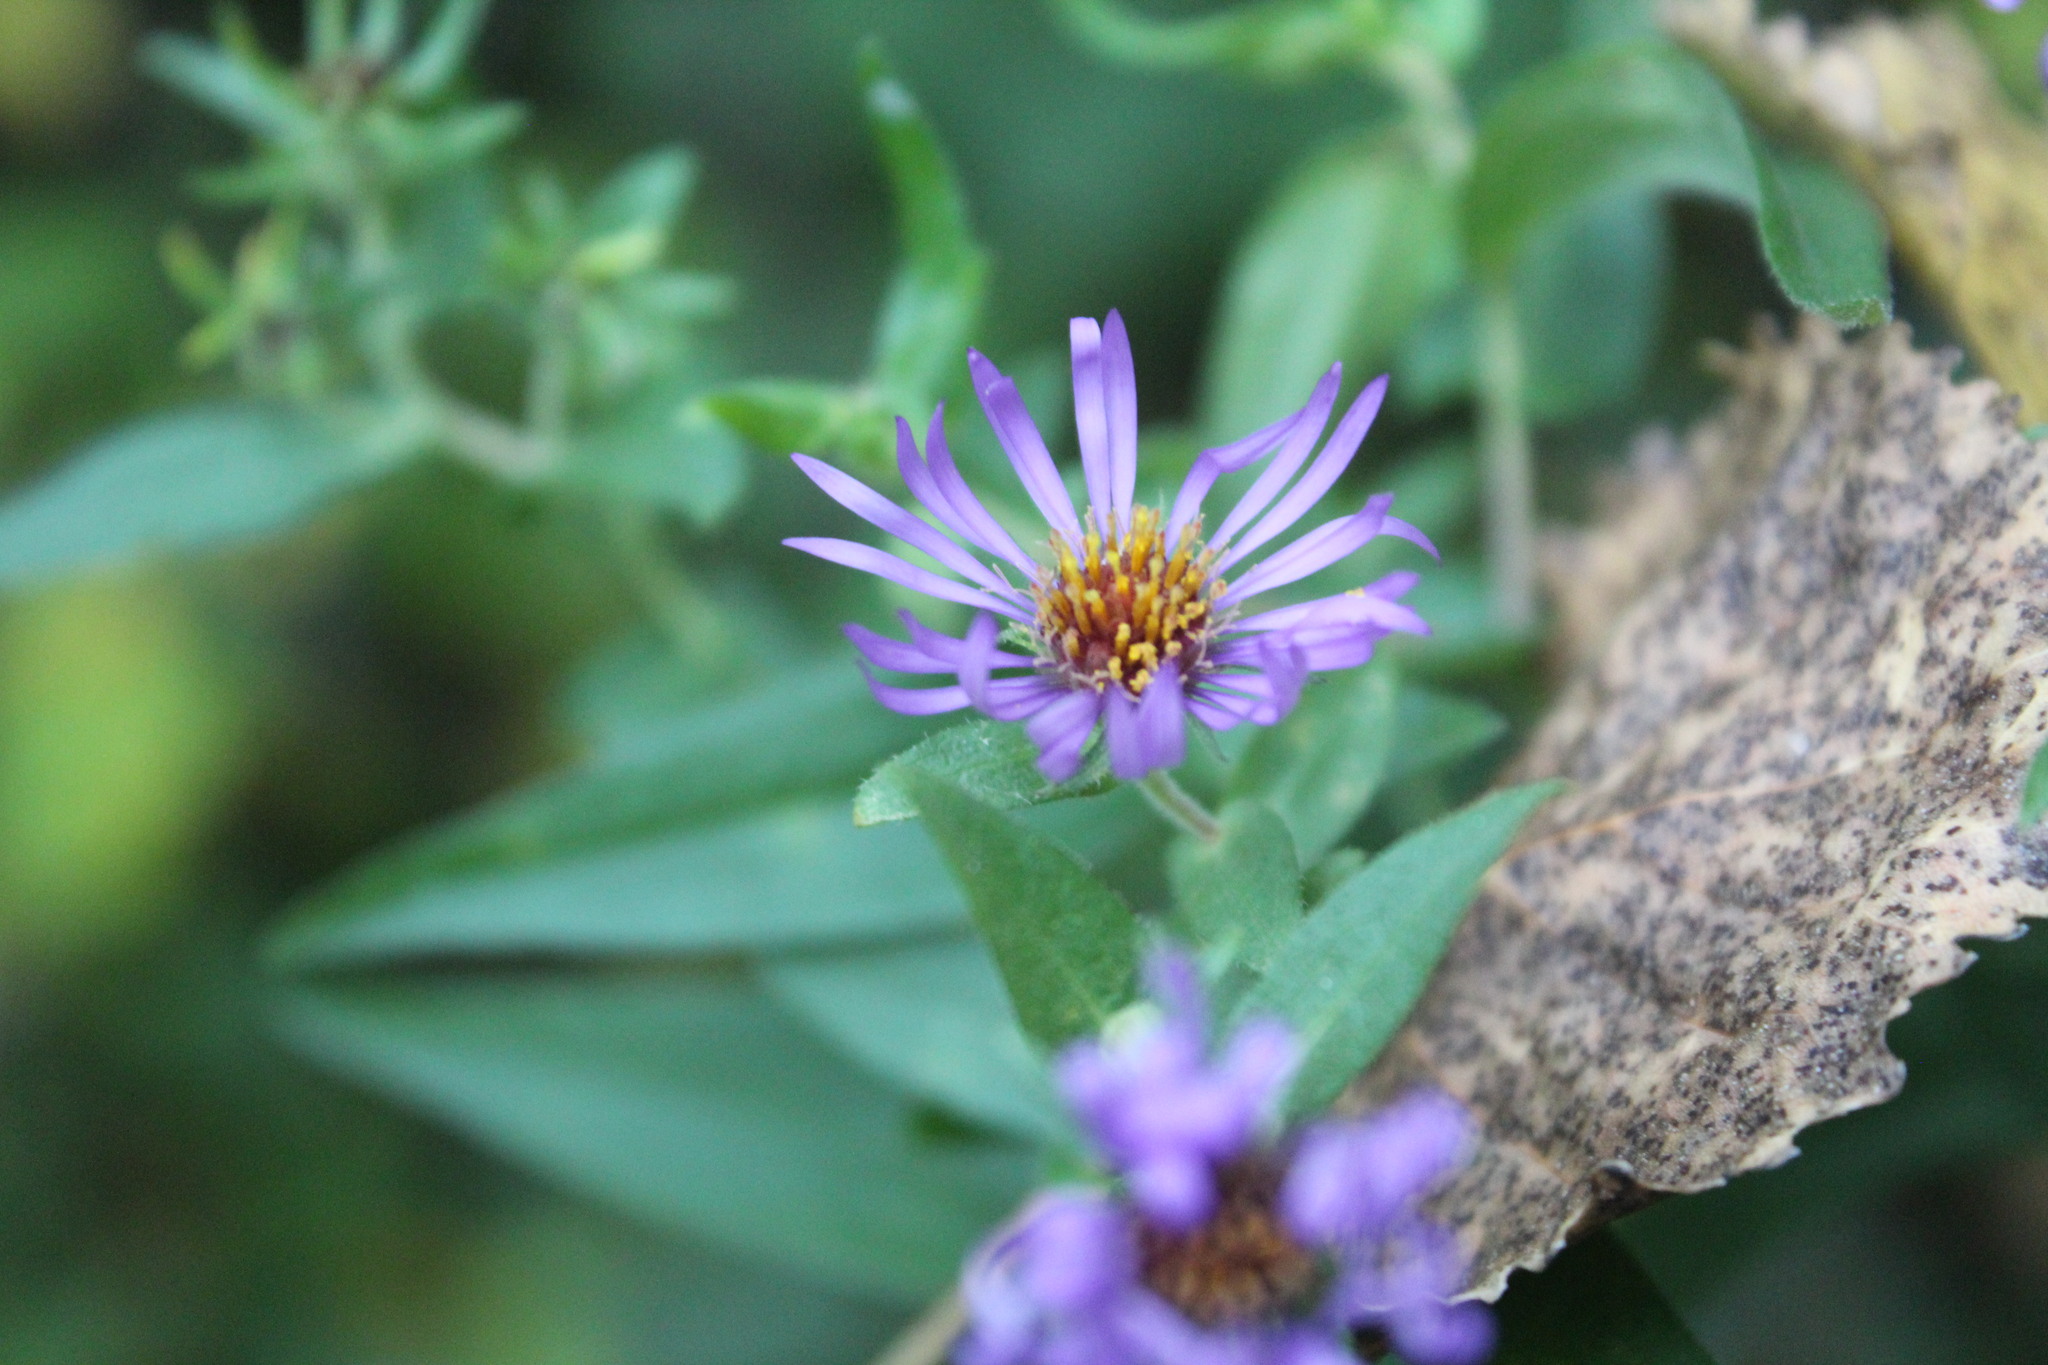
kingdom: Plantae
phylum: Tracheophyta
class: Magnoliopsida
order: Asterales
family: Asteraceae
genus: Symphyotrichum
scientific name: Symphyotrichum novae-angliae
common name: Michaelmas daisy
